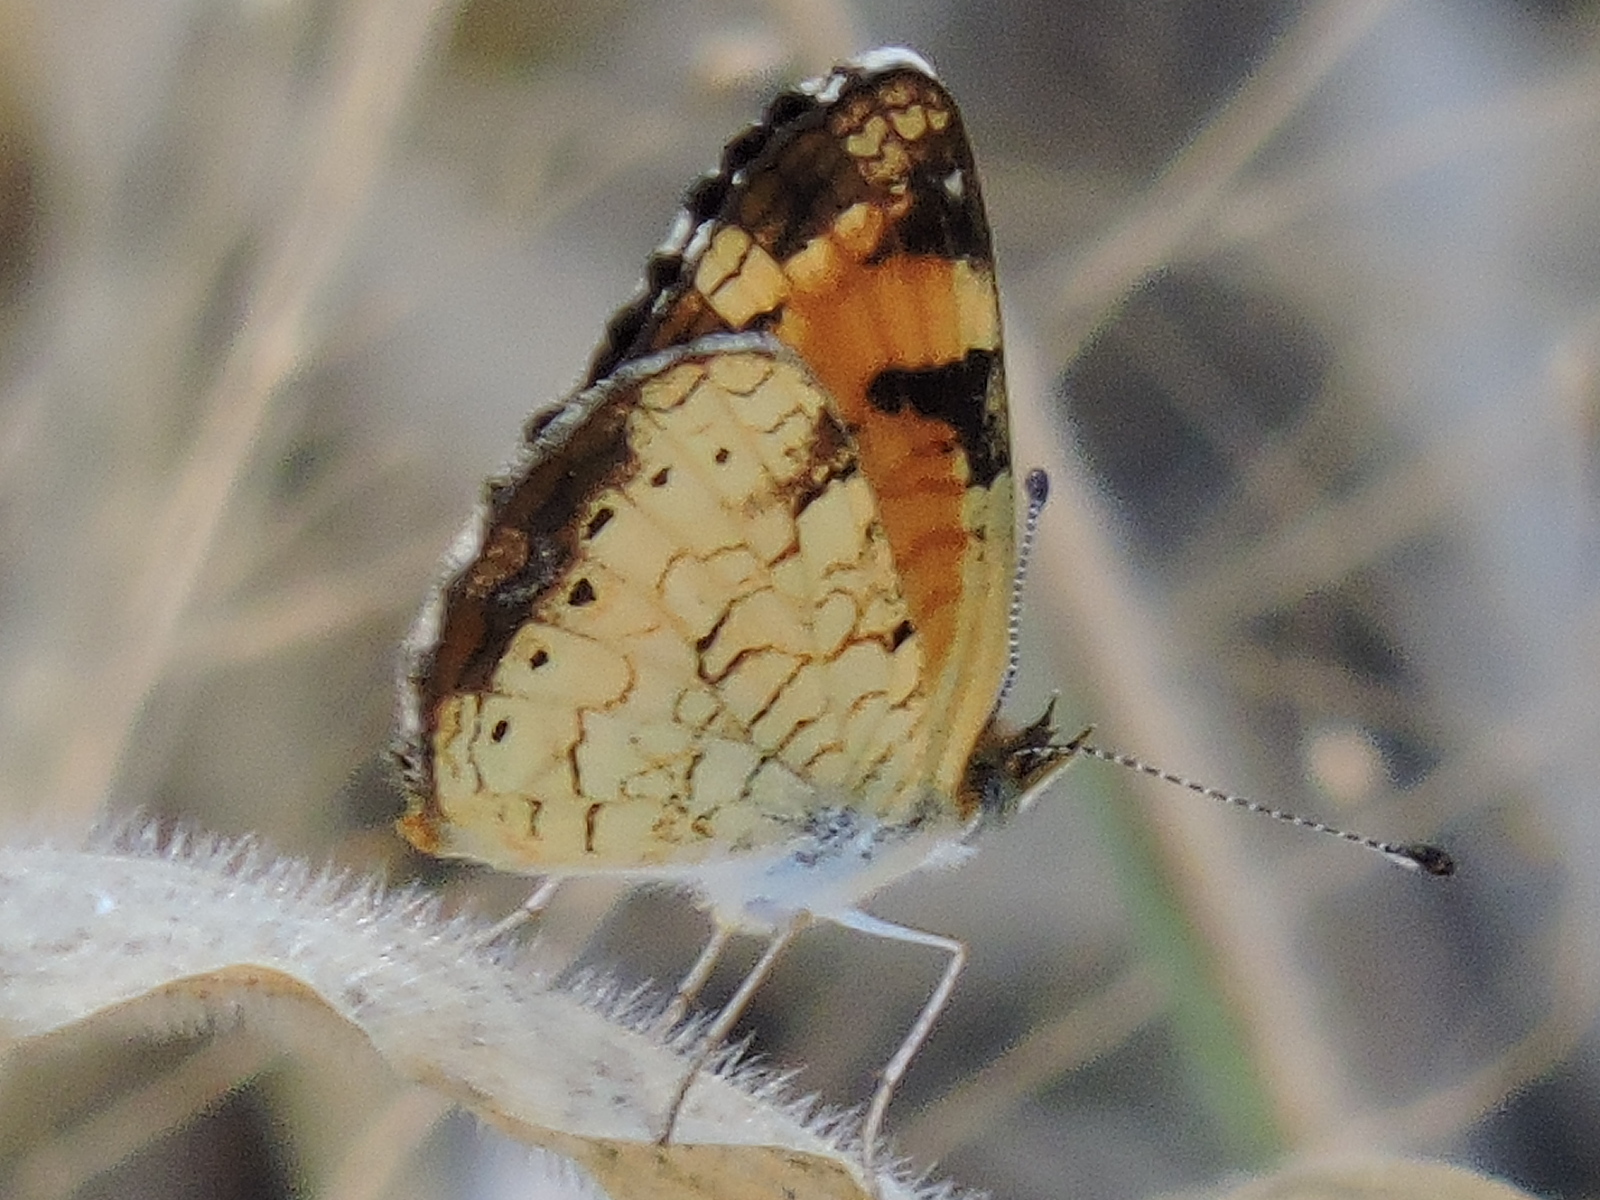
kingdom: Animalia
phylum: Arthropoda
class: Insecta
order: Lepidoptera
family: Nymphalidae
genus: Phyciodes
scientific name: Phyciodes tharos
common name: Pearl crescent
